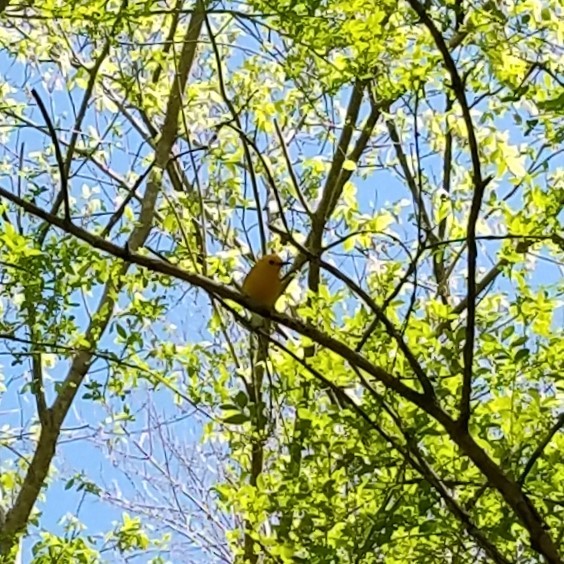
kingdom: Animalia
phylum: Chordata
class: Aves
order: Passeriformes
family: Parulidae
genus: Protonotaria
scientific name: Protonotaria citrea
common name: Prothonotary warbler
